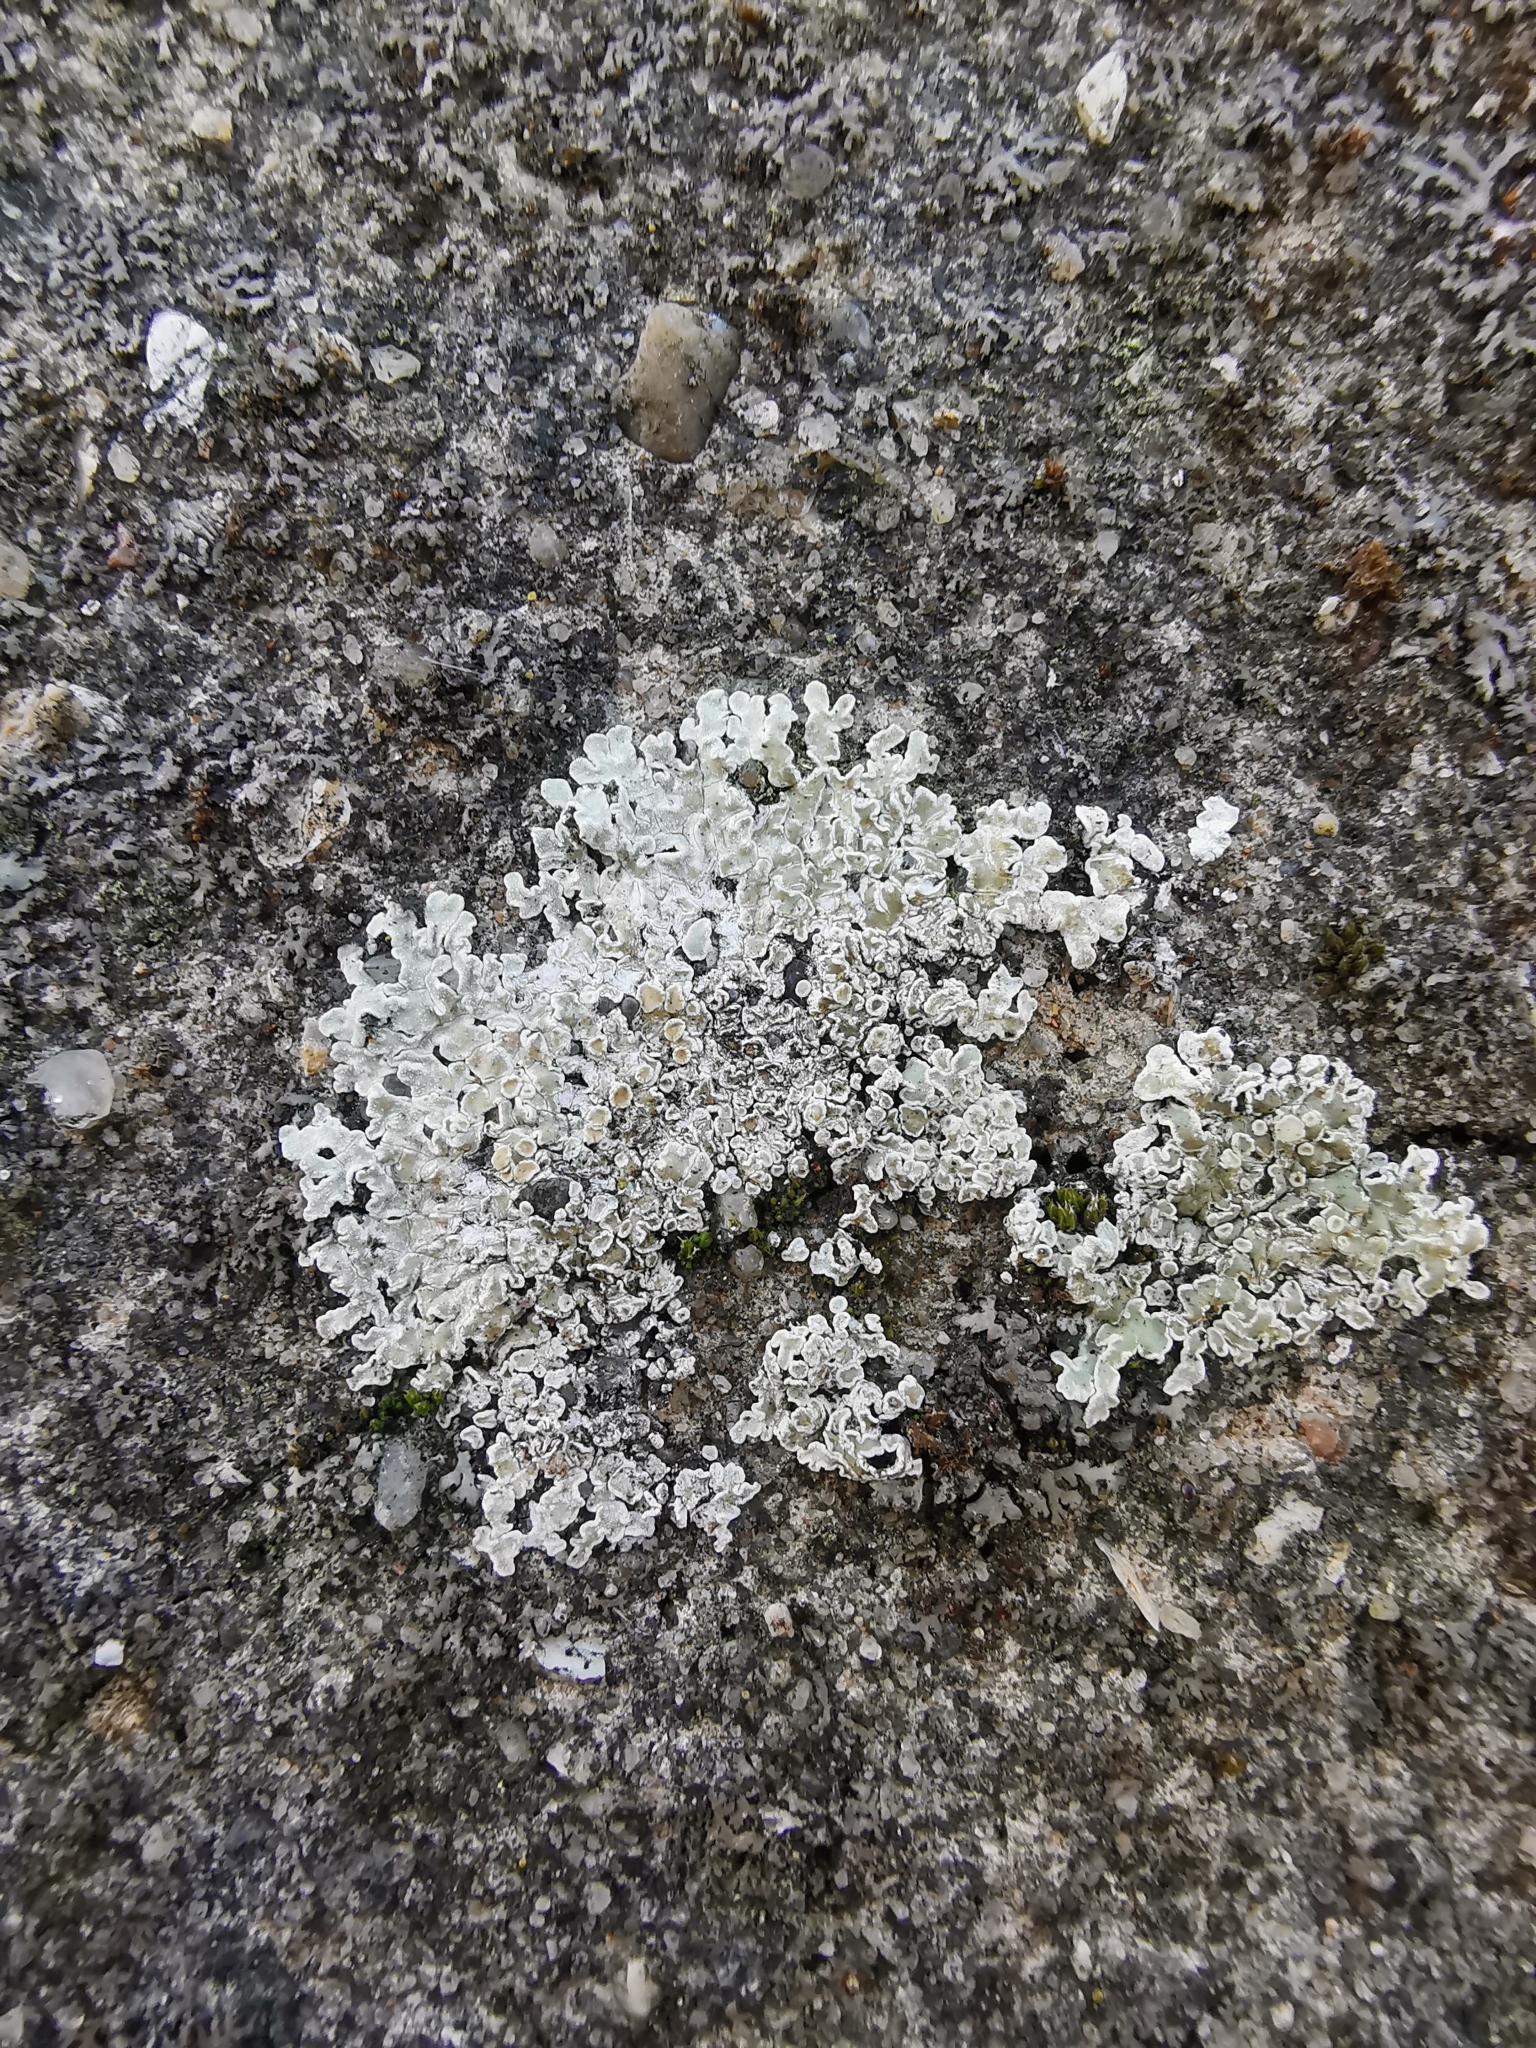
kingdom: Fungi
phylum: Ascomycota
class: Lecanoromycetes
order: Lecanorales
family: Lecanoraceae
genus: Protoparmeliopsis
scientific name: Protoparmeliopsis muralis
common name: Stonewall rim lichen
